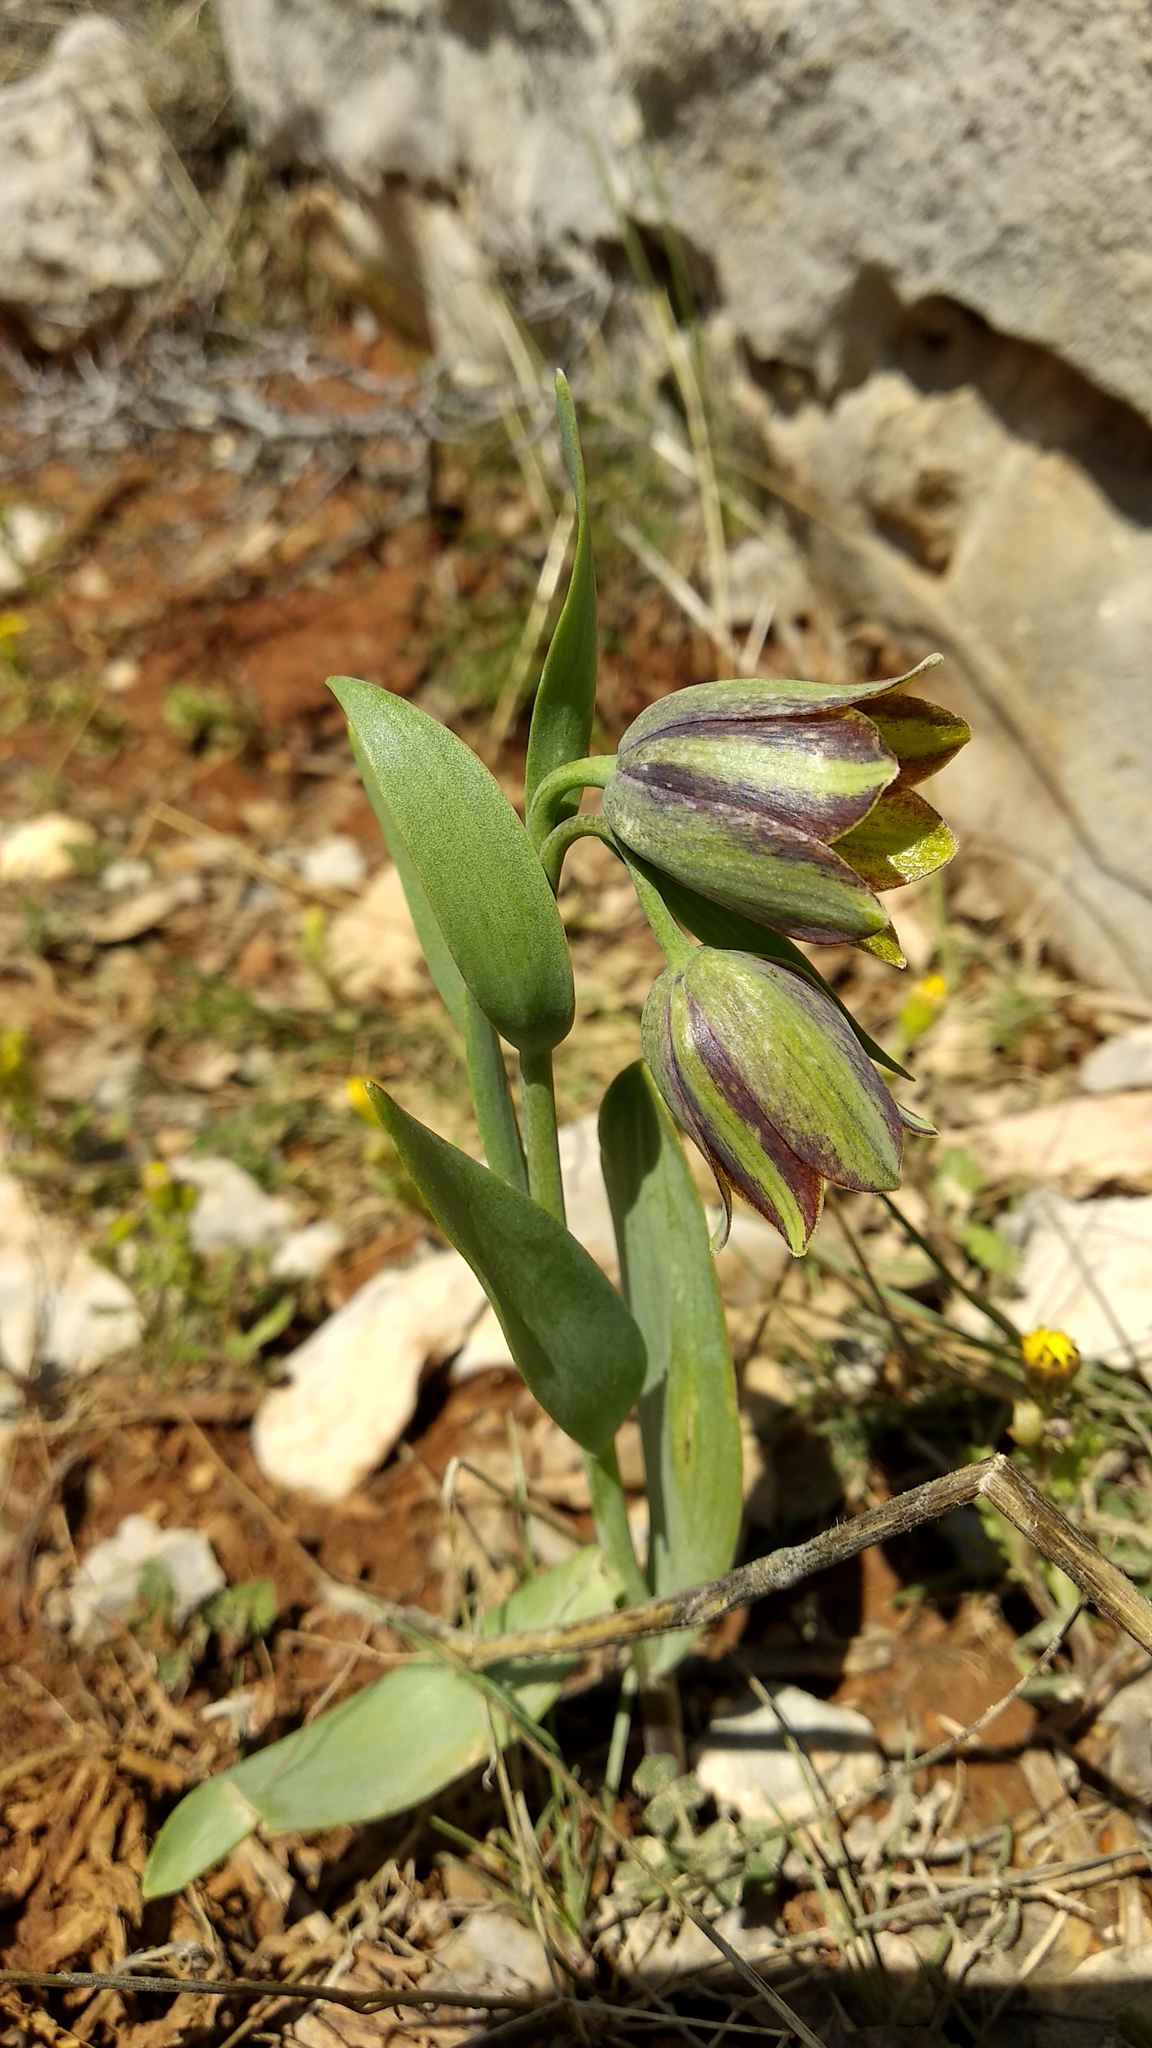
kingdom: Plantae
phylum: Tracheophyta
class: Liliopsida
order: Liliales
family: Liliaceae
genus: Fritillaria
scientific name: Fritillaria hermonis
